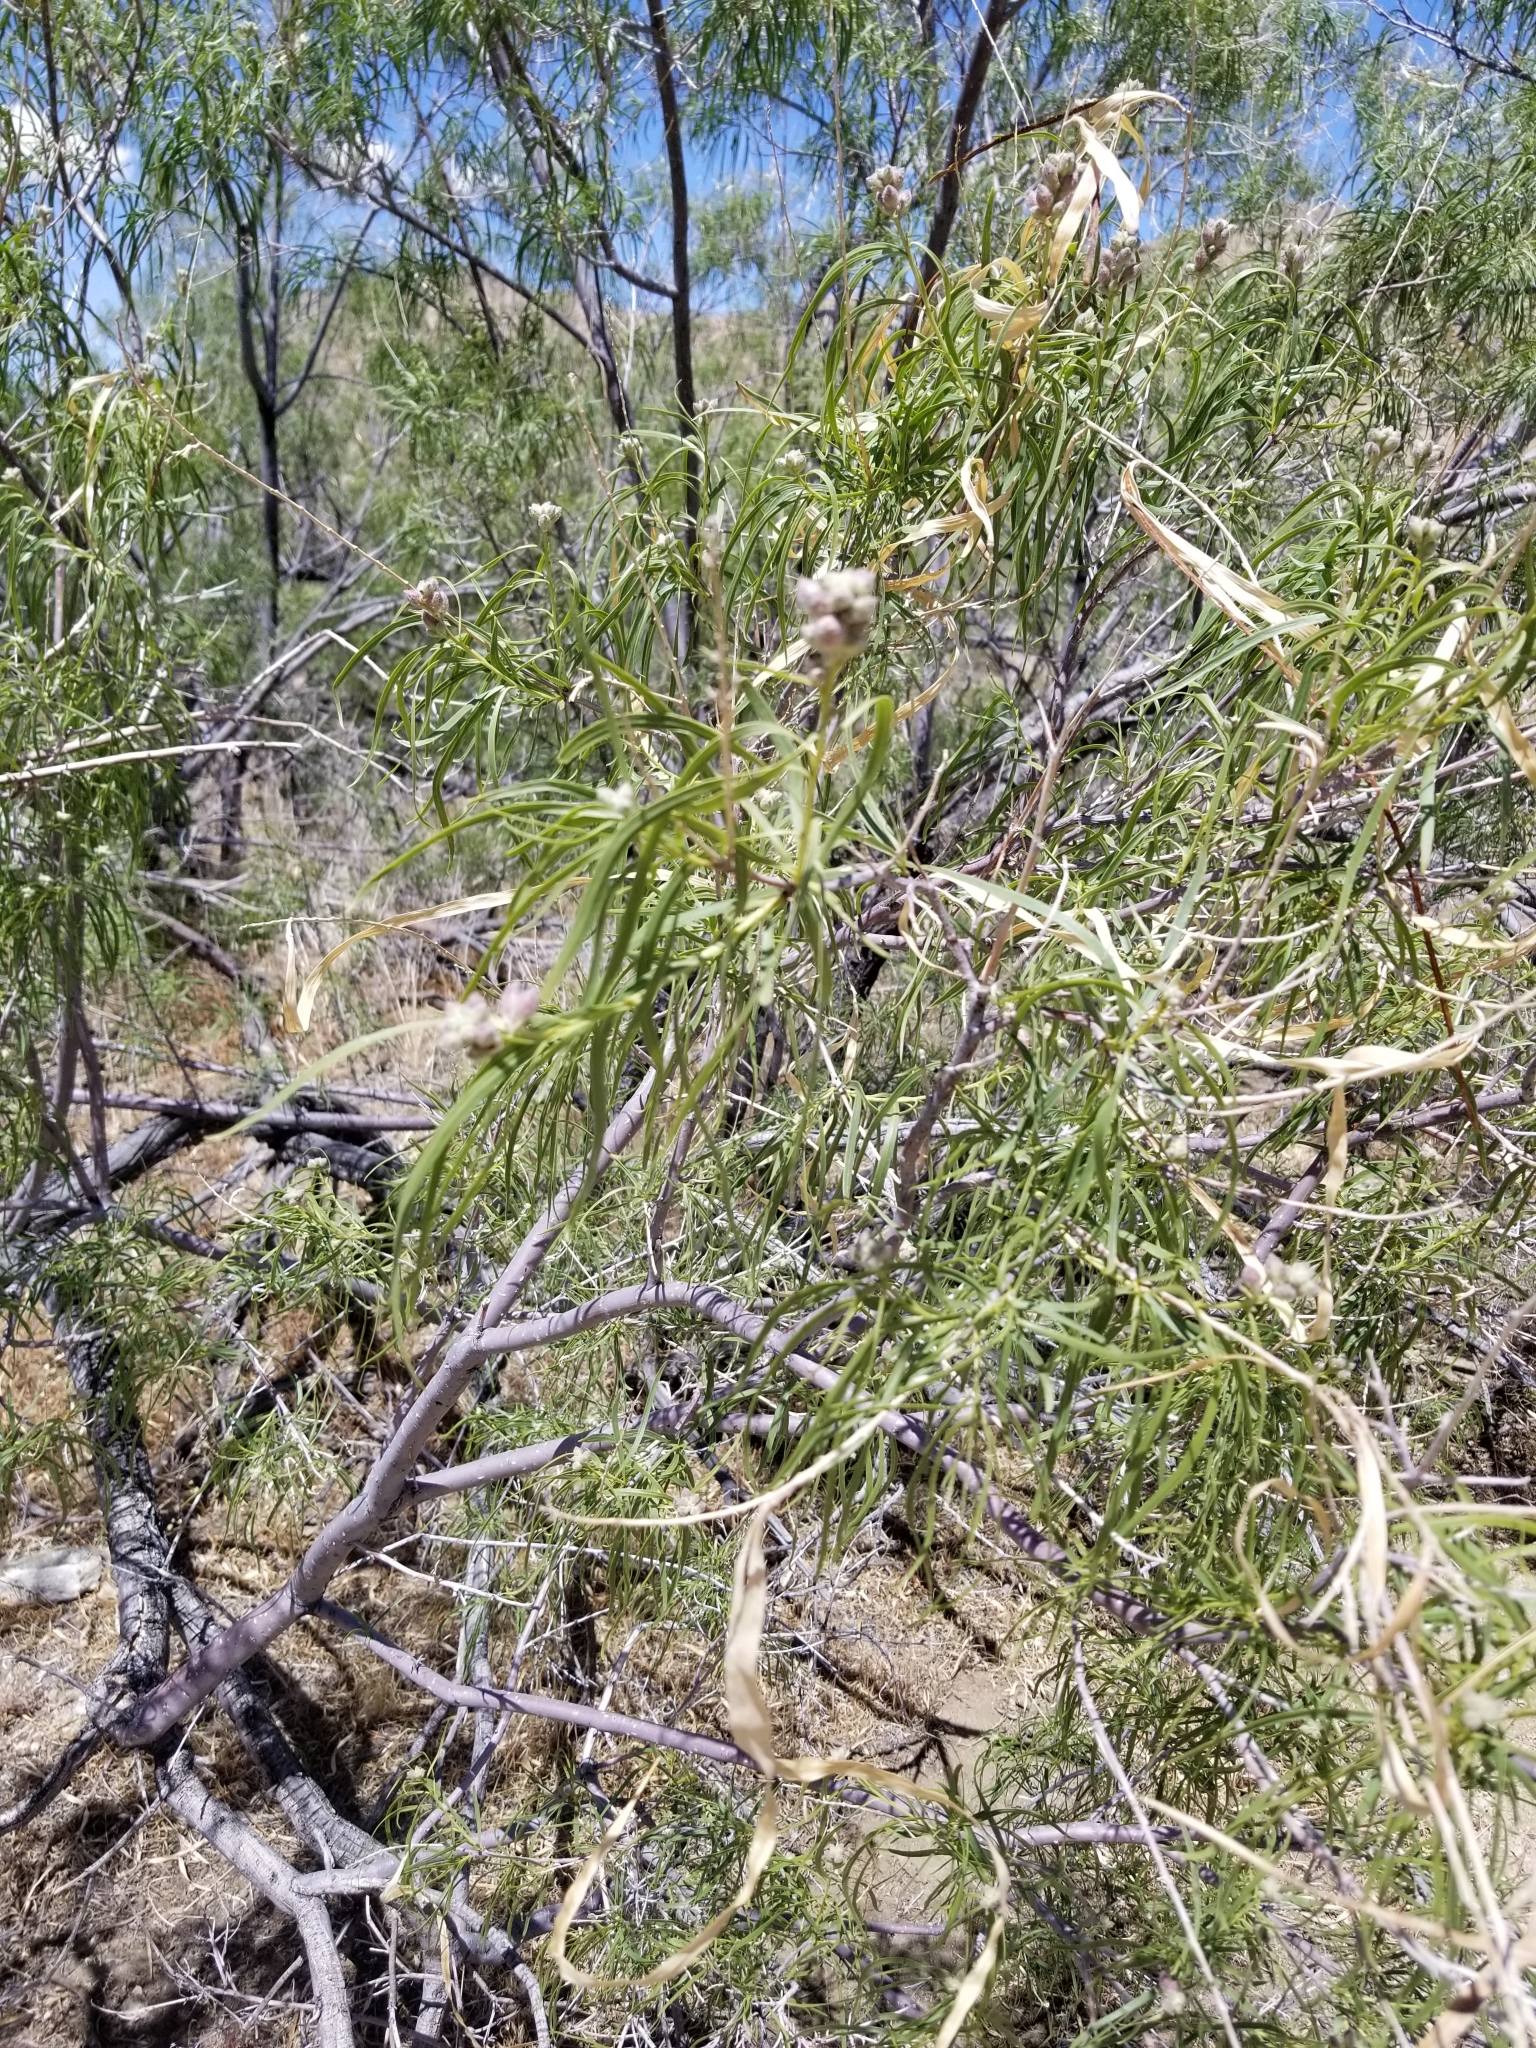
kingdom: Plantae
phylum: Tracheophyta
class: Magnoliopsida
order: Lamiales
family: Bignoniaceae
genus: Chilopsis
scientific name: Chilopsis linearis
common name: Desert-willow
